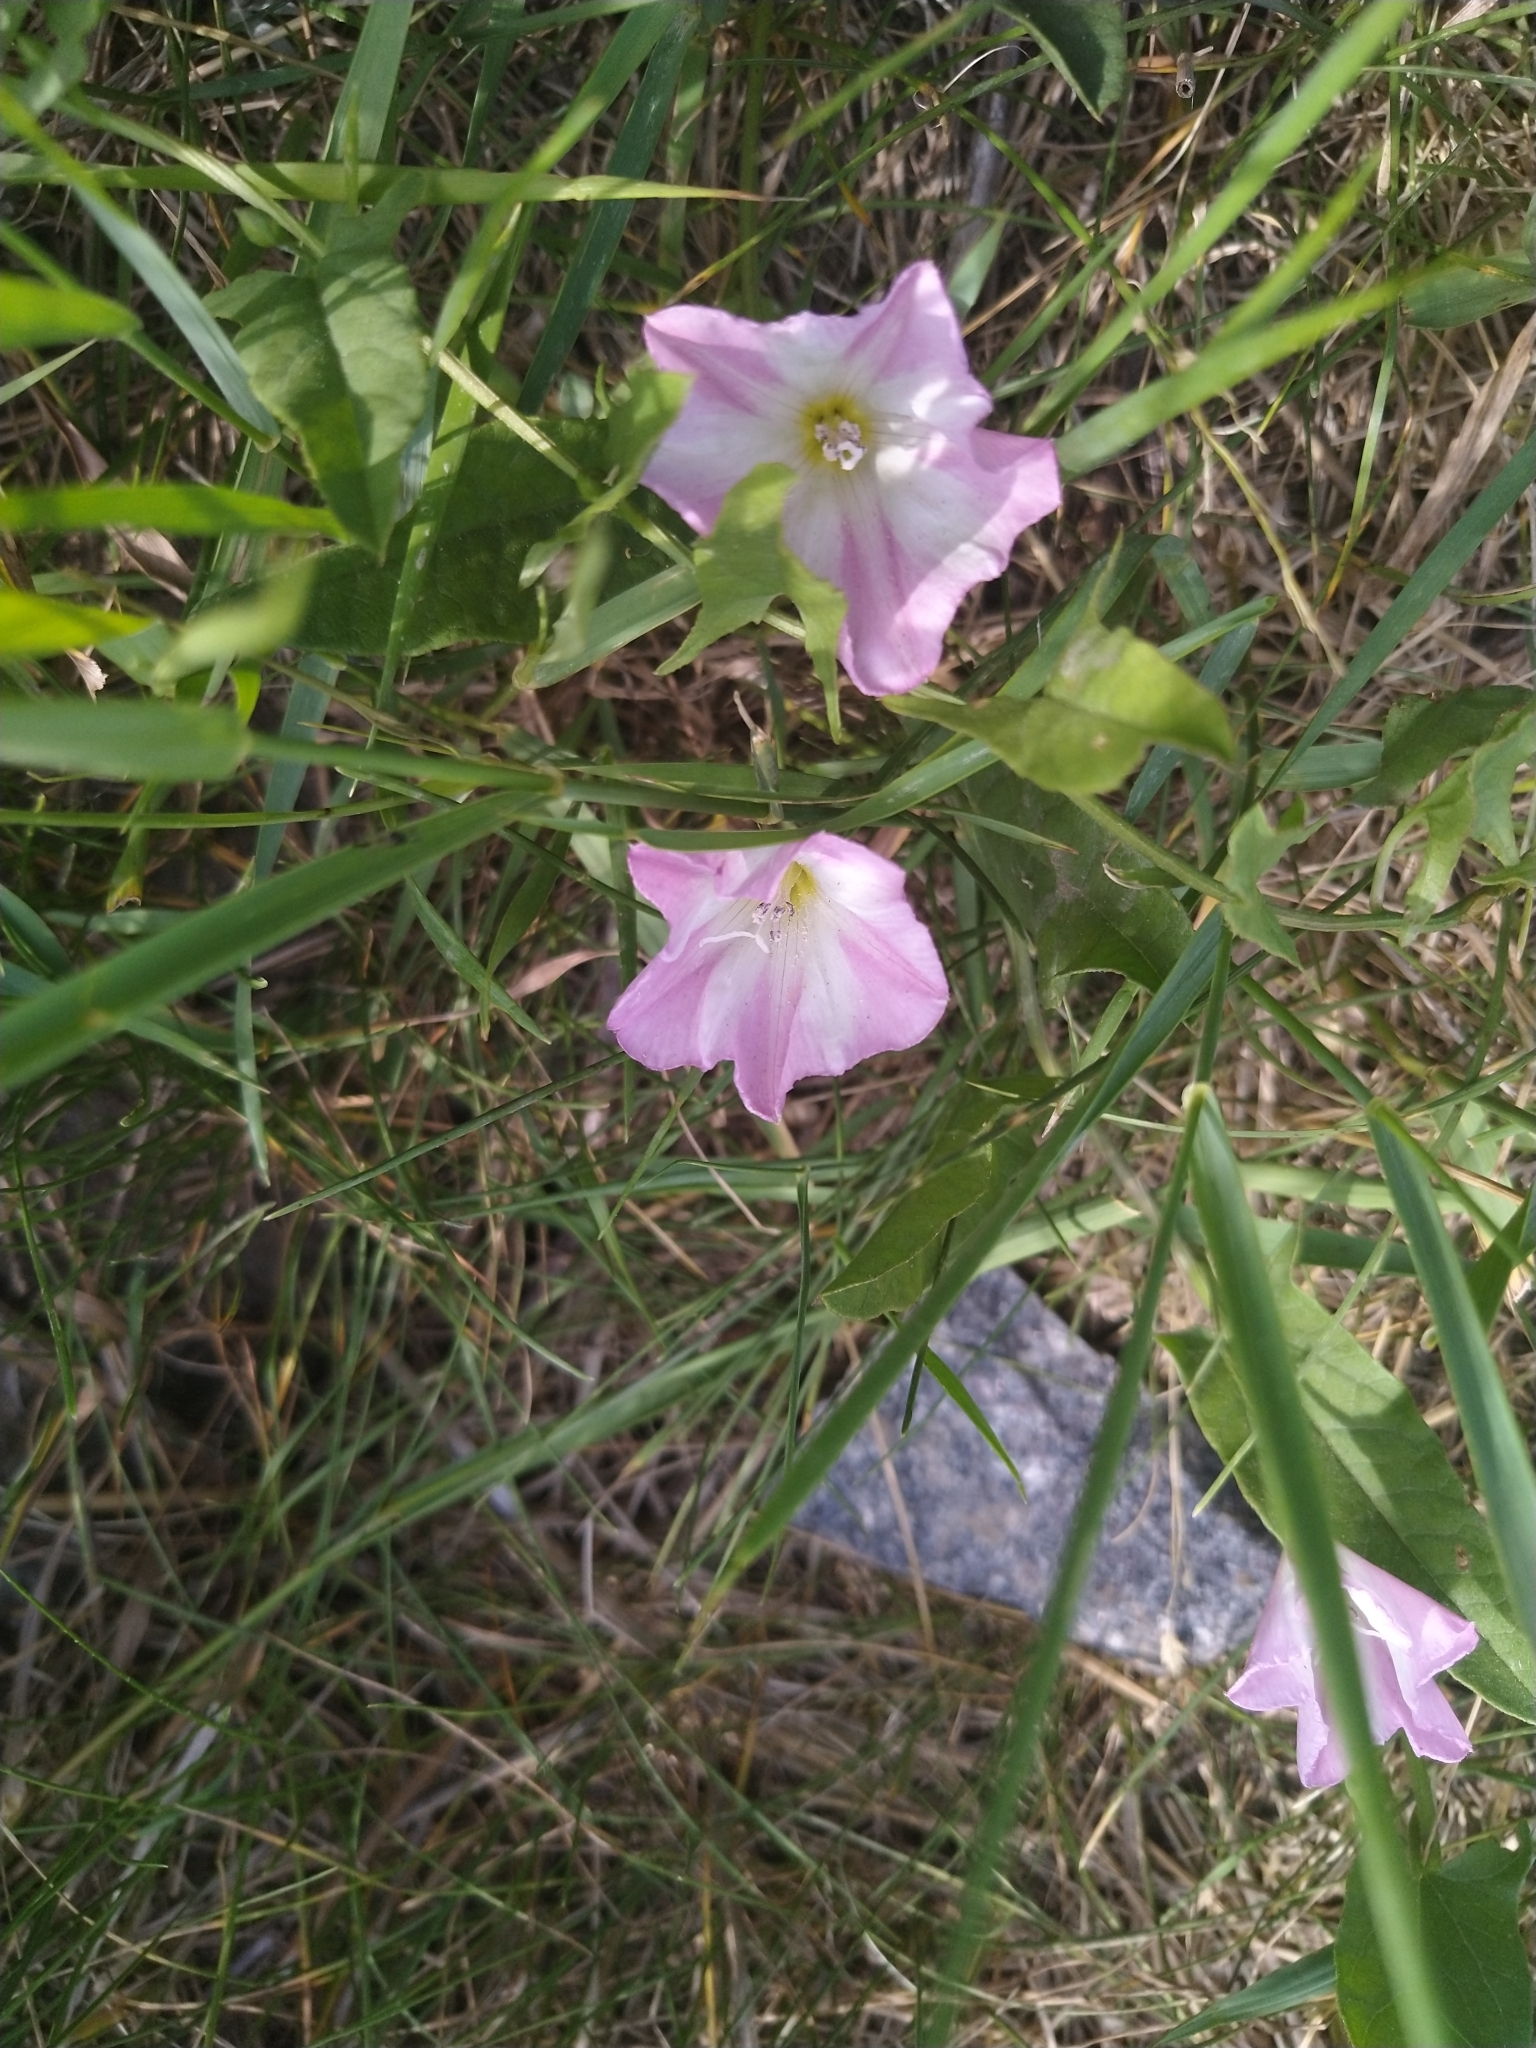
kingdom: Plantae
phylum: Tracheophyta
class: Magnoliopsida
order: Solanales
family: Convolvulaceae
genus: Convolvulus
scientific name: Convolvulus arvensis
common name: Field bindweed
